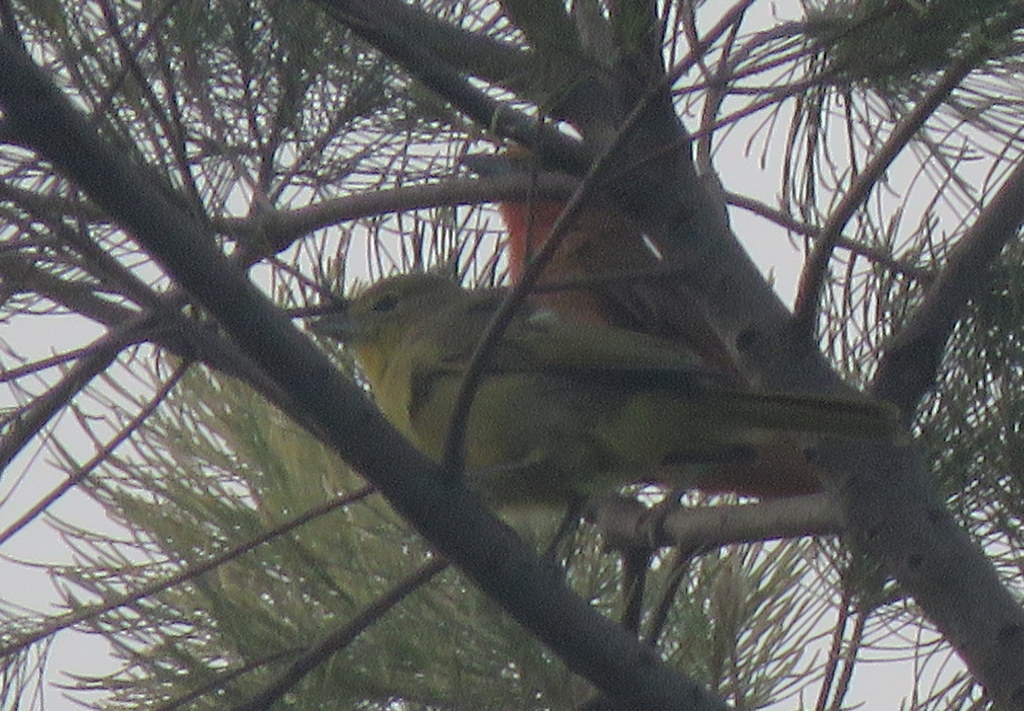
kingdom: Animalia
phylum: Chordata
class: Aves
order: Passeriformes
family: Cardinalidae
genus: Piranga
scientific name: Piranga flava
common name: Red tanager
